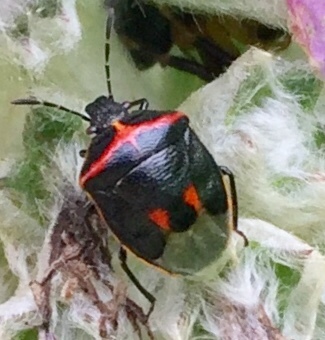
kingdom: Animalia
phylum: Arthropoda
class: Insecta
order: Hemiptera
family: Pentatomidae
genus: Cosmopepla
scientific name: Cosmopepla lintneriana
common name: Twice-stabbed stink bug
